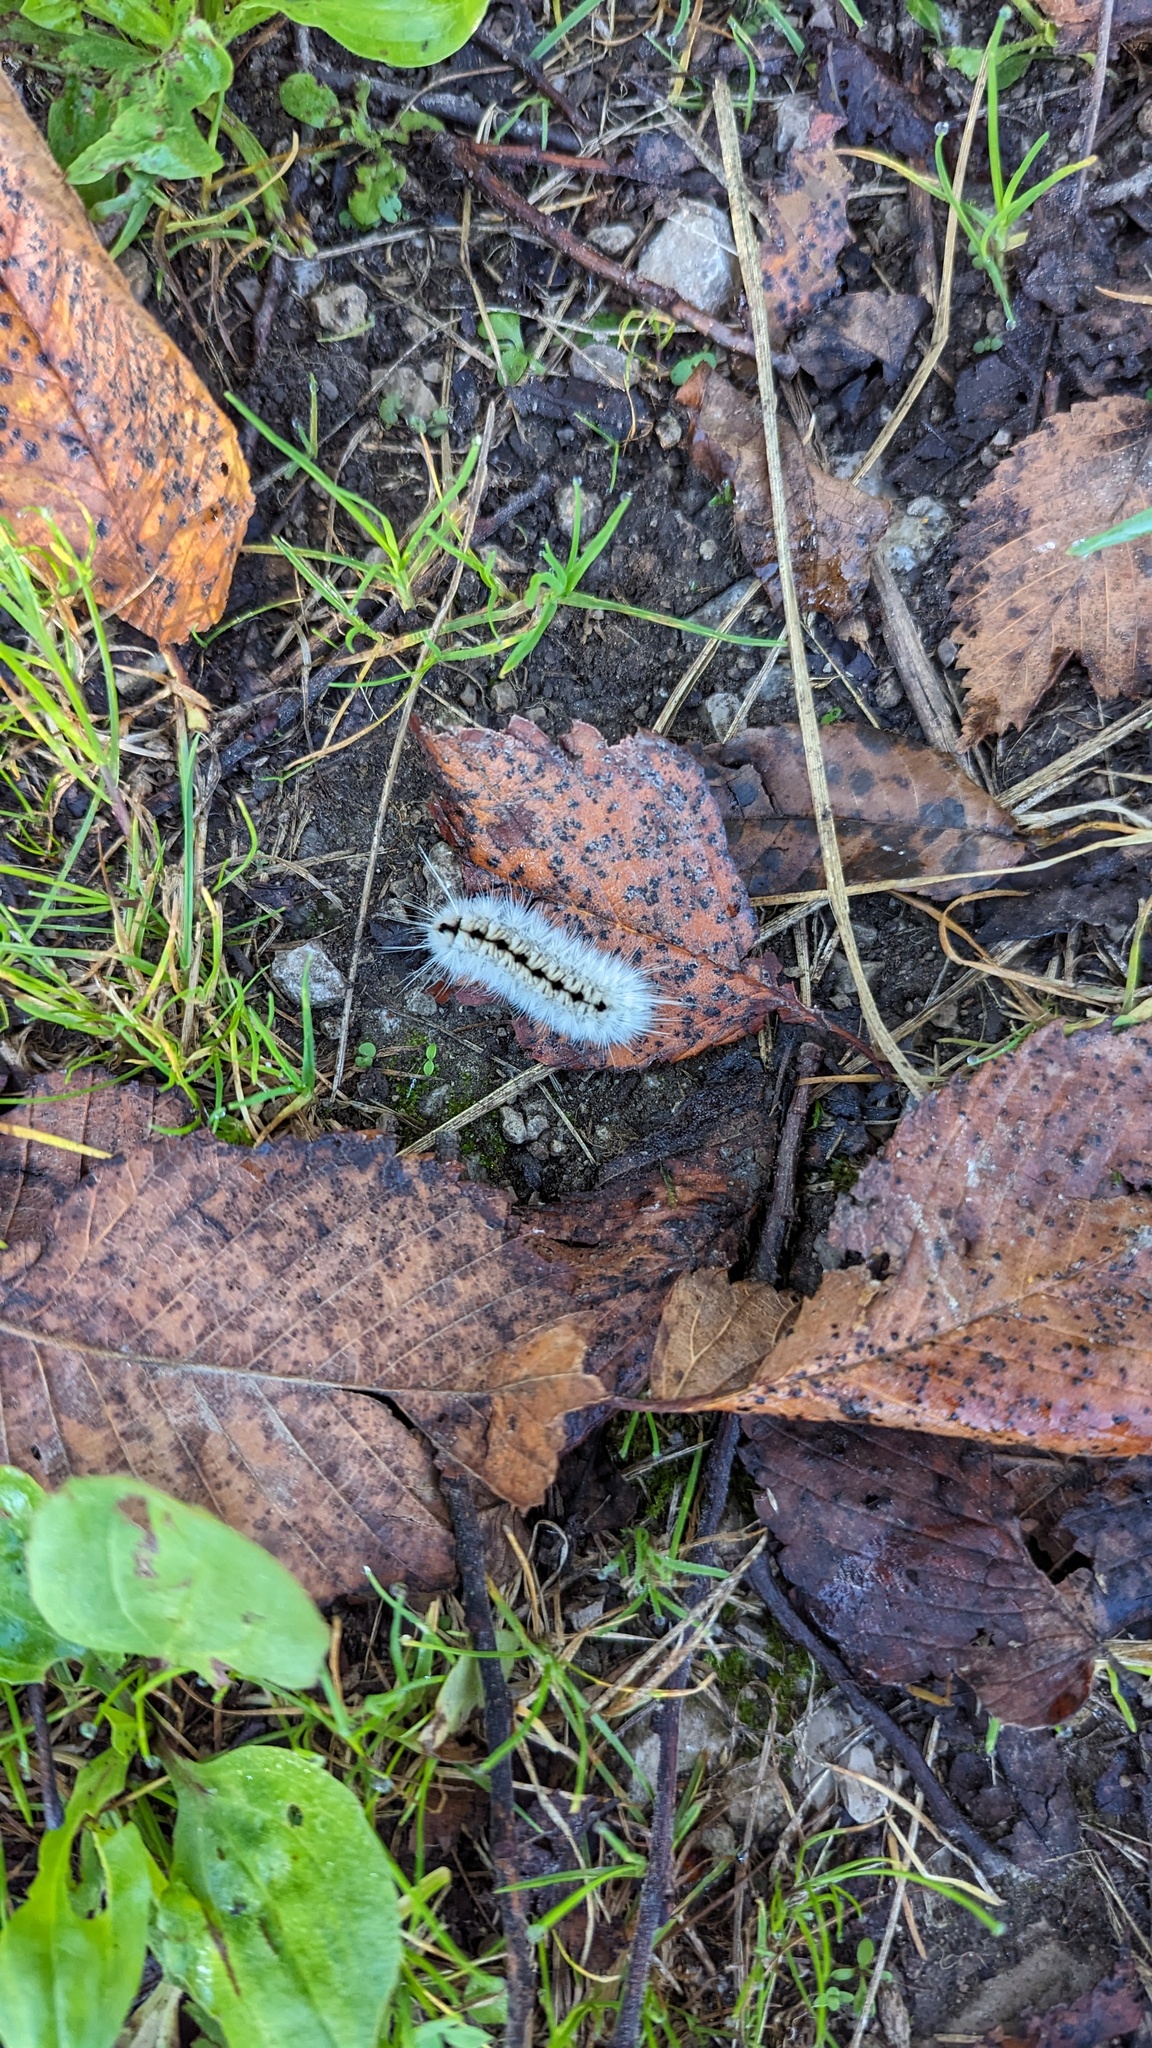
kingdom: Animalia
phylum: Arthropoda
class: Insecta
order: Lepidoptera
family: Erebidae
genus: Lophocampa
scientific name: Lophocampa caryae
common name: Hickory tussock moth
